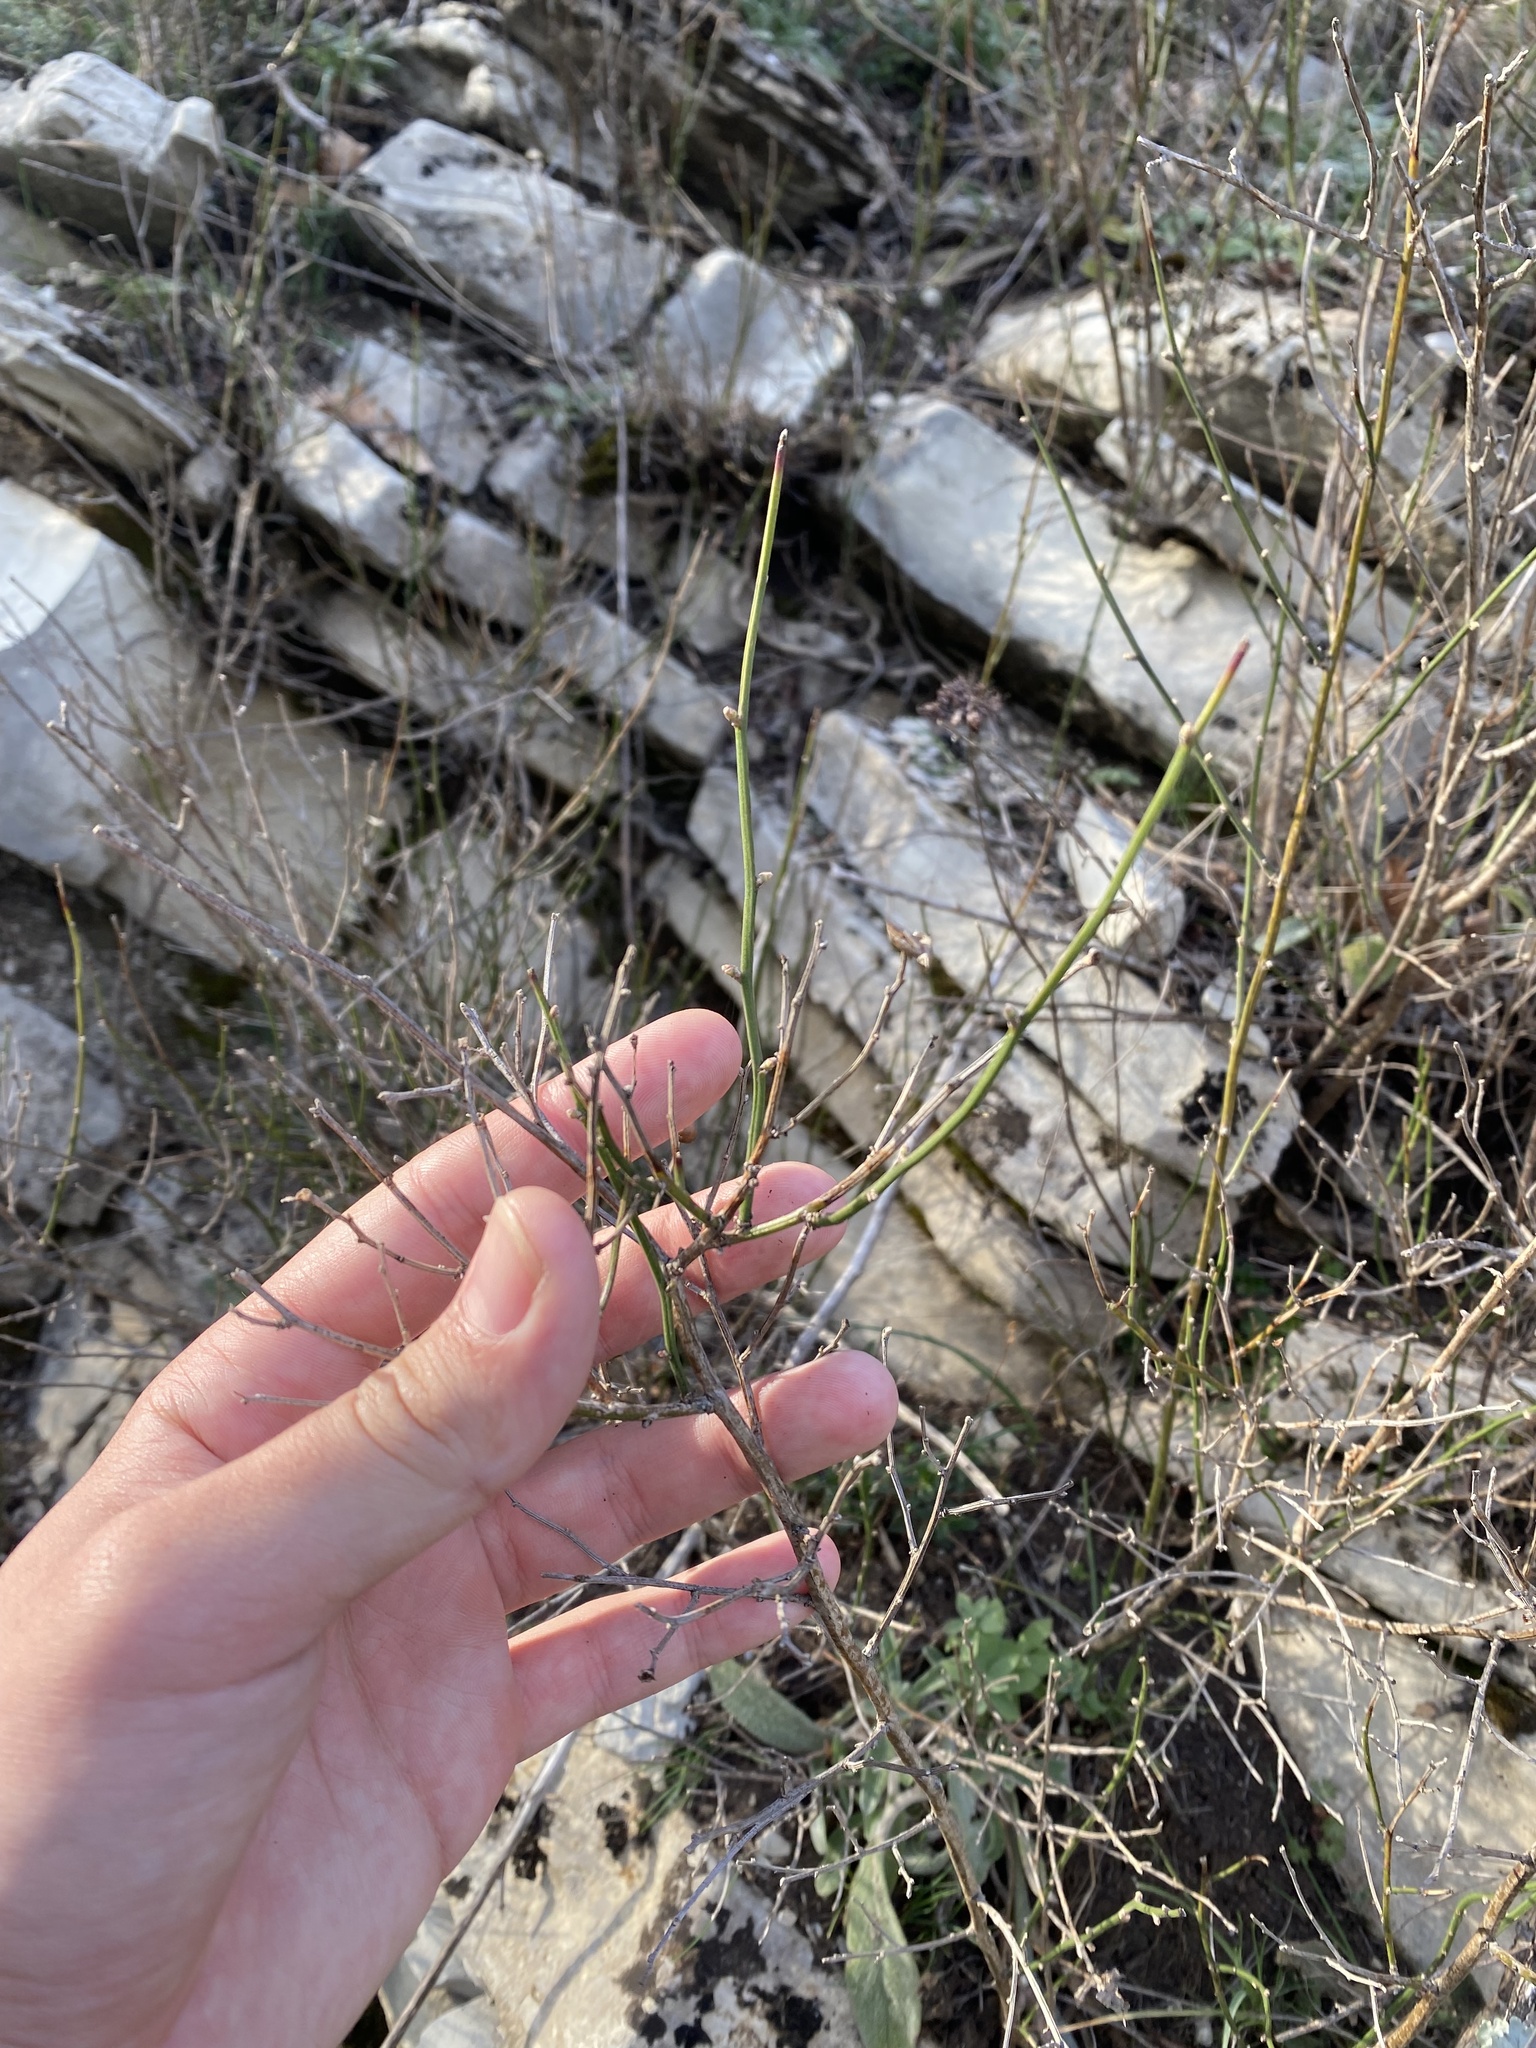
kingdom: Plantae
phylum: Tracheophyta
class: Magnoliopsida
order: Lamiales
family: Oleaceae
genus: Chrysojasminum
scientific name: Chrysojasminum fruticans
